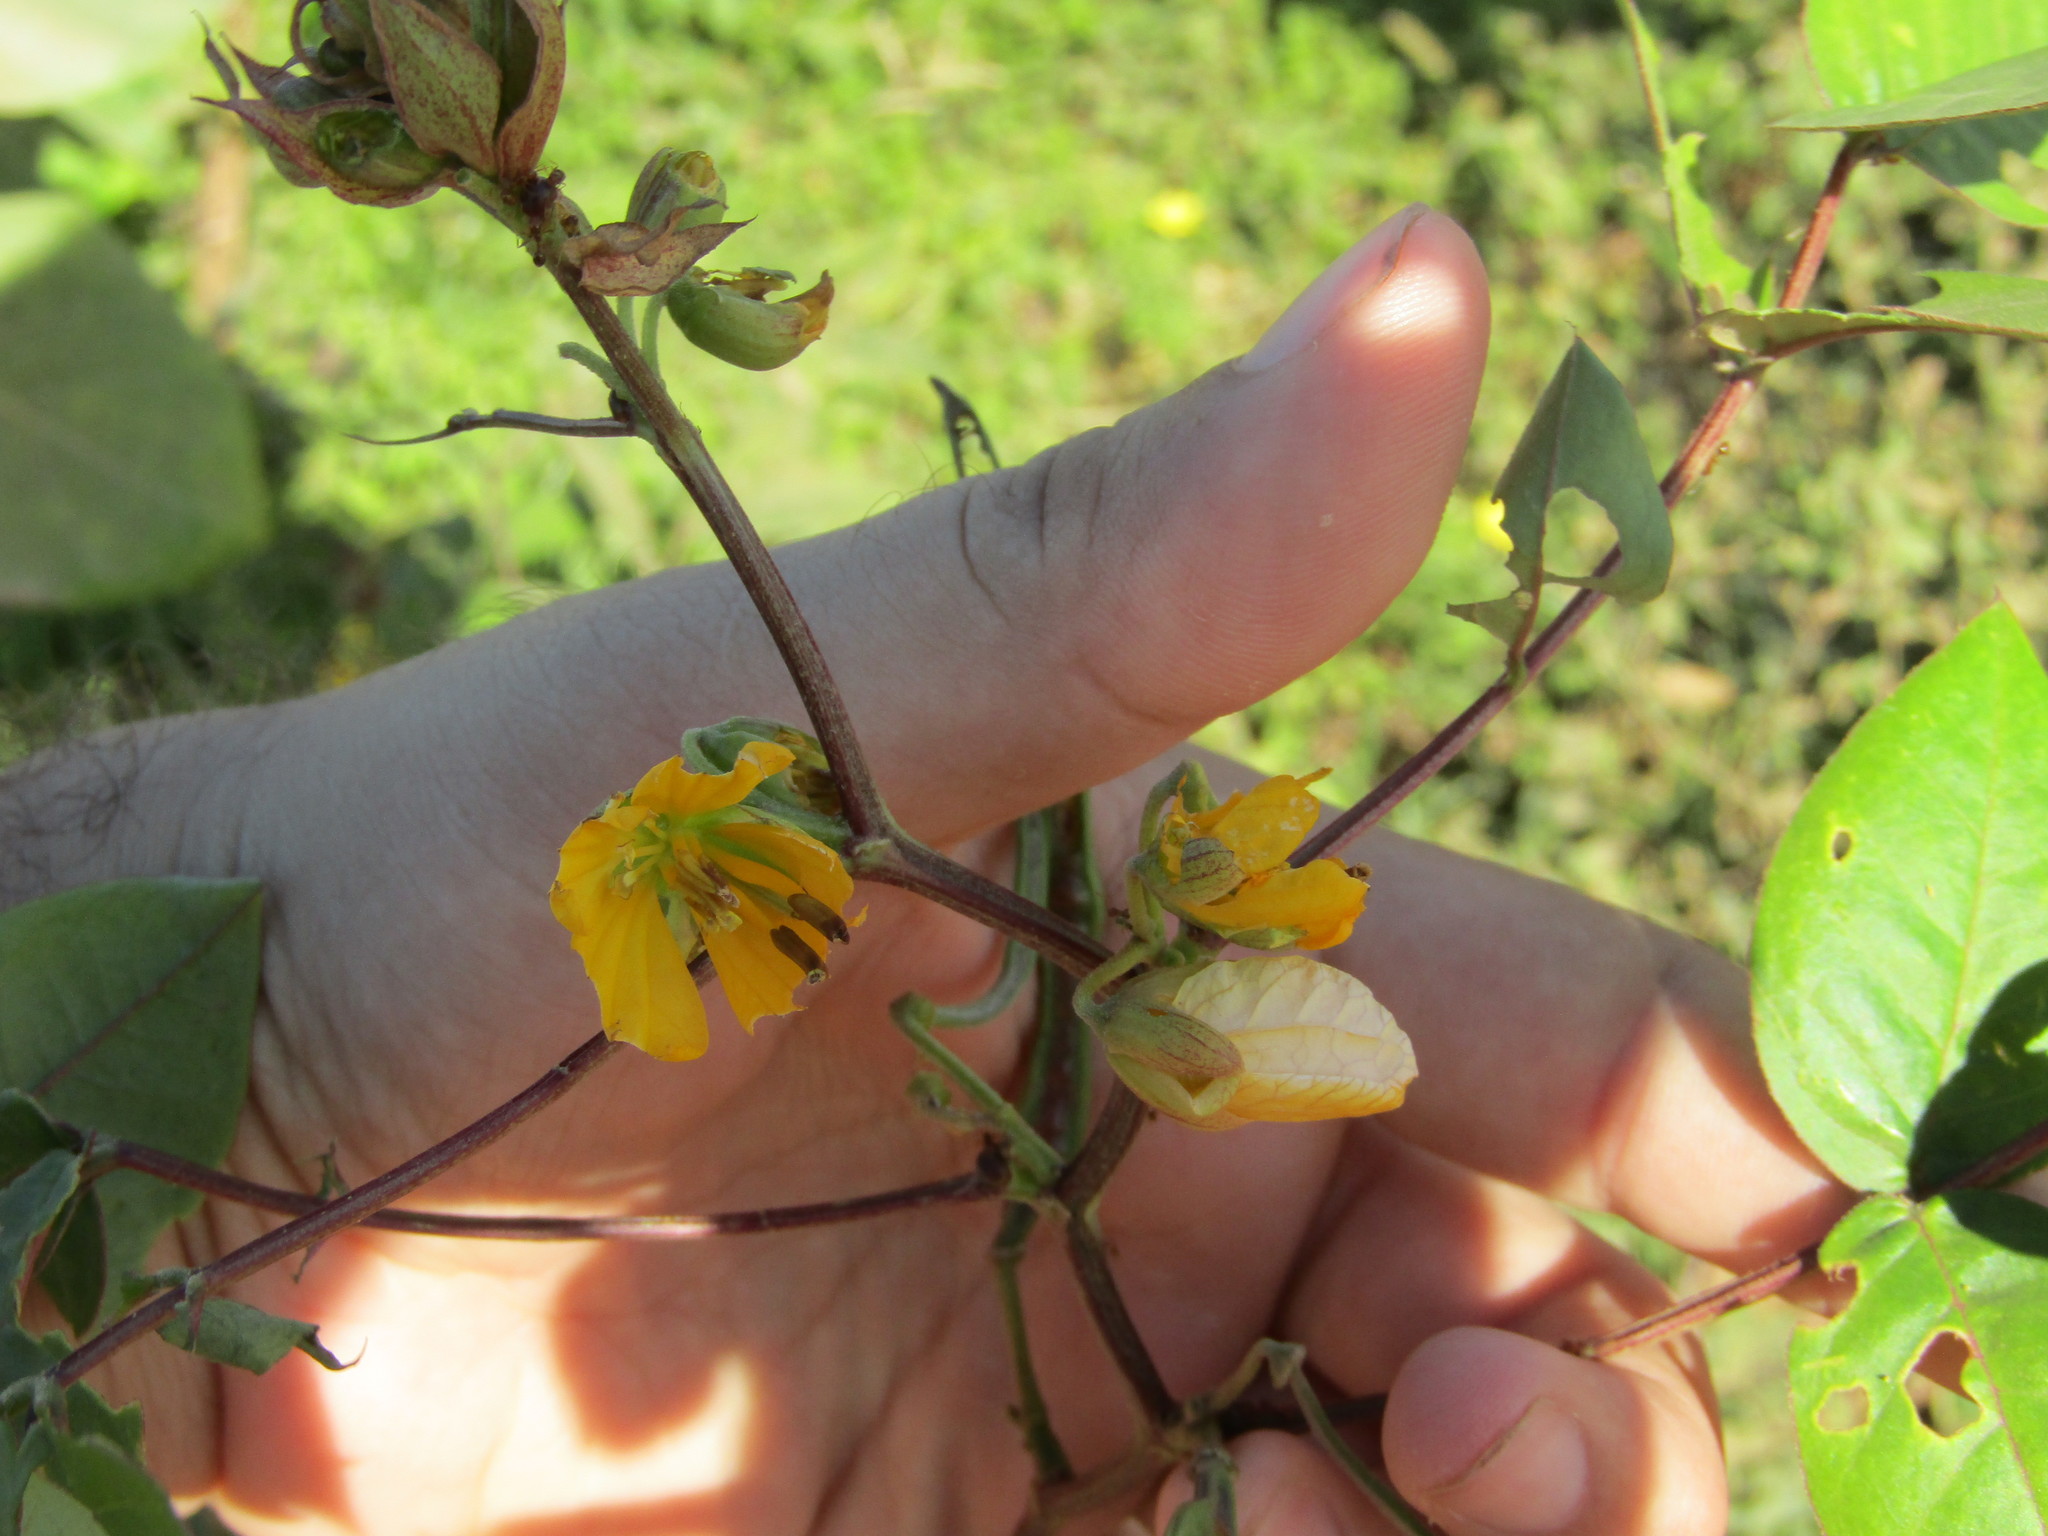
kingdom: Plantae
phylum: Tracheophyta
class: Magnoliopsida
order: Fabales
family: Fabaceae
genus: Senna
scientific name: Senna occidentalis
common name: Septicweed
